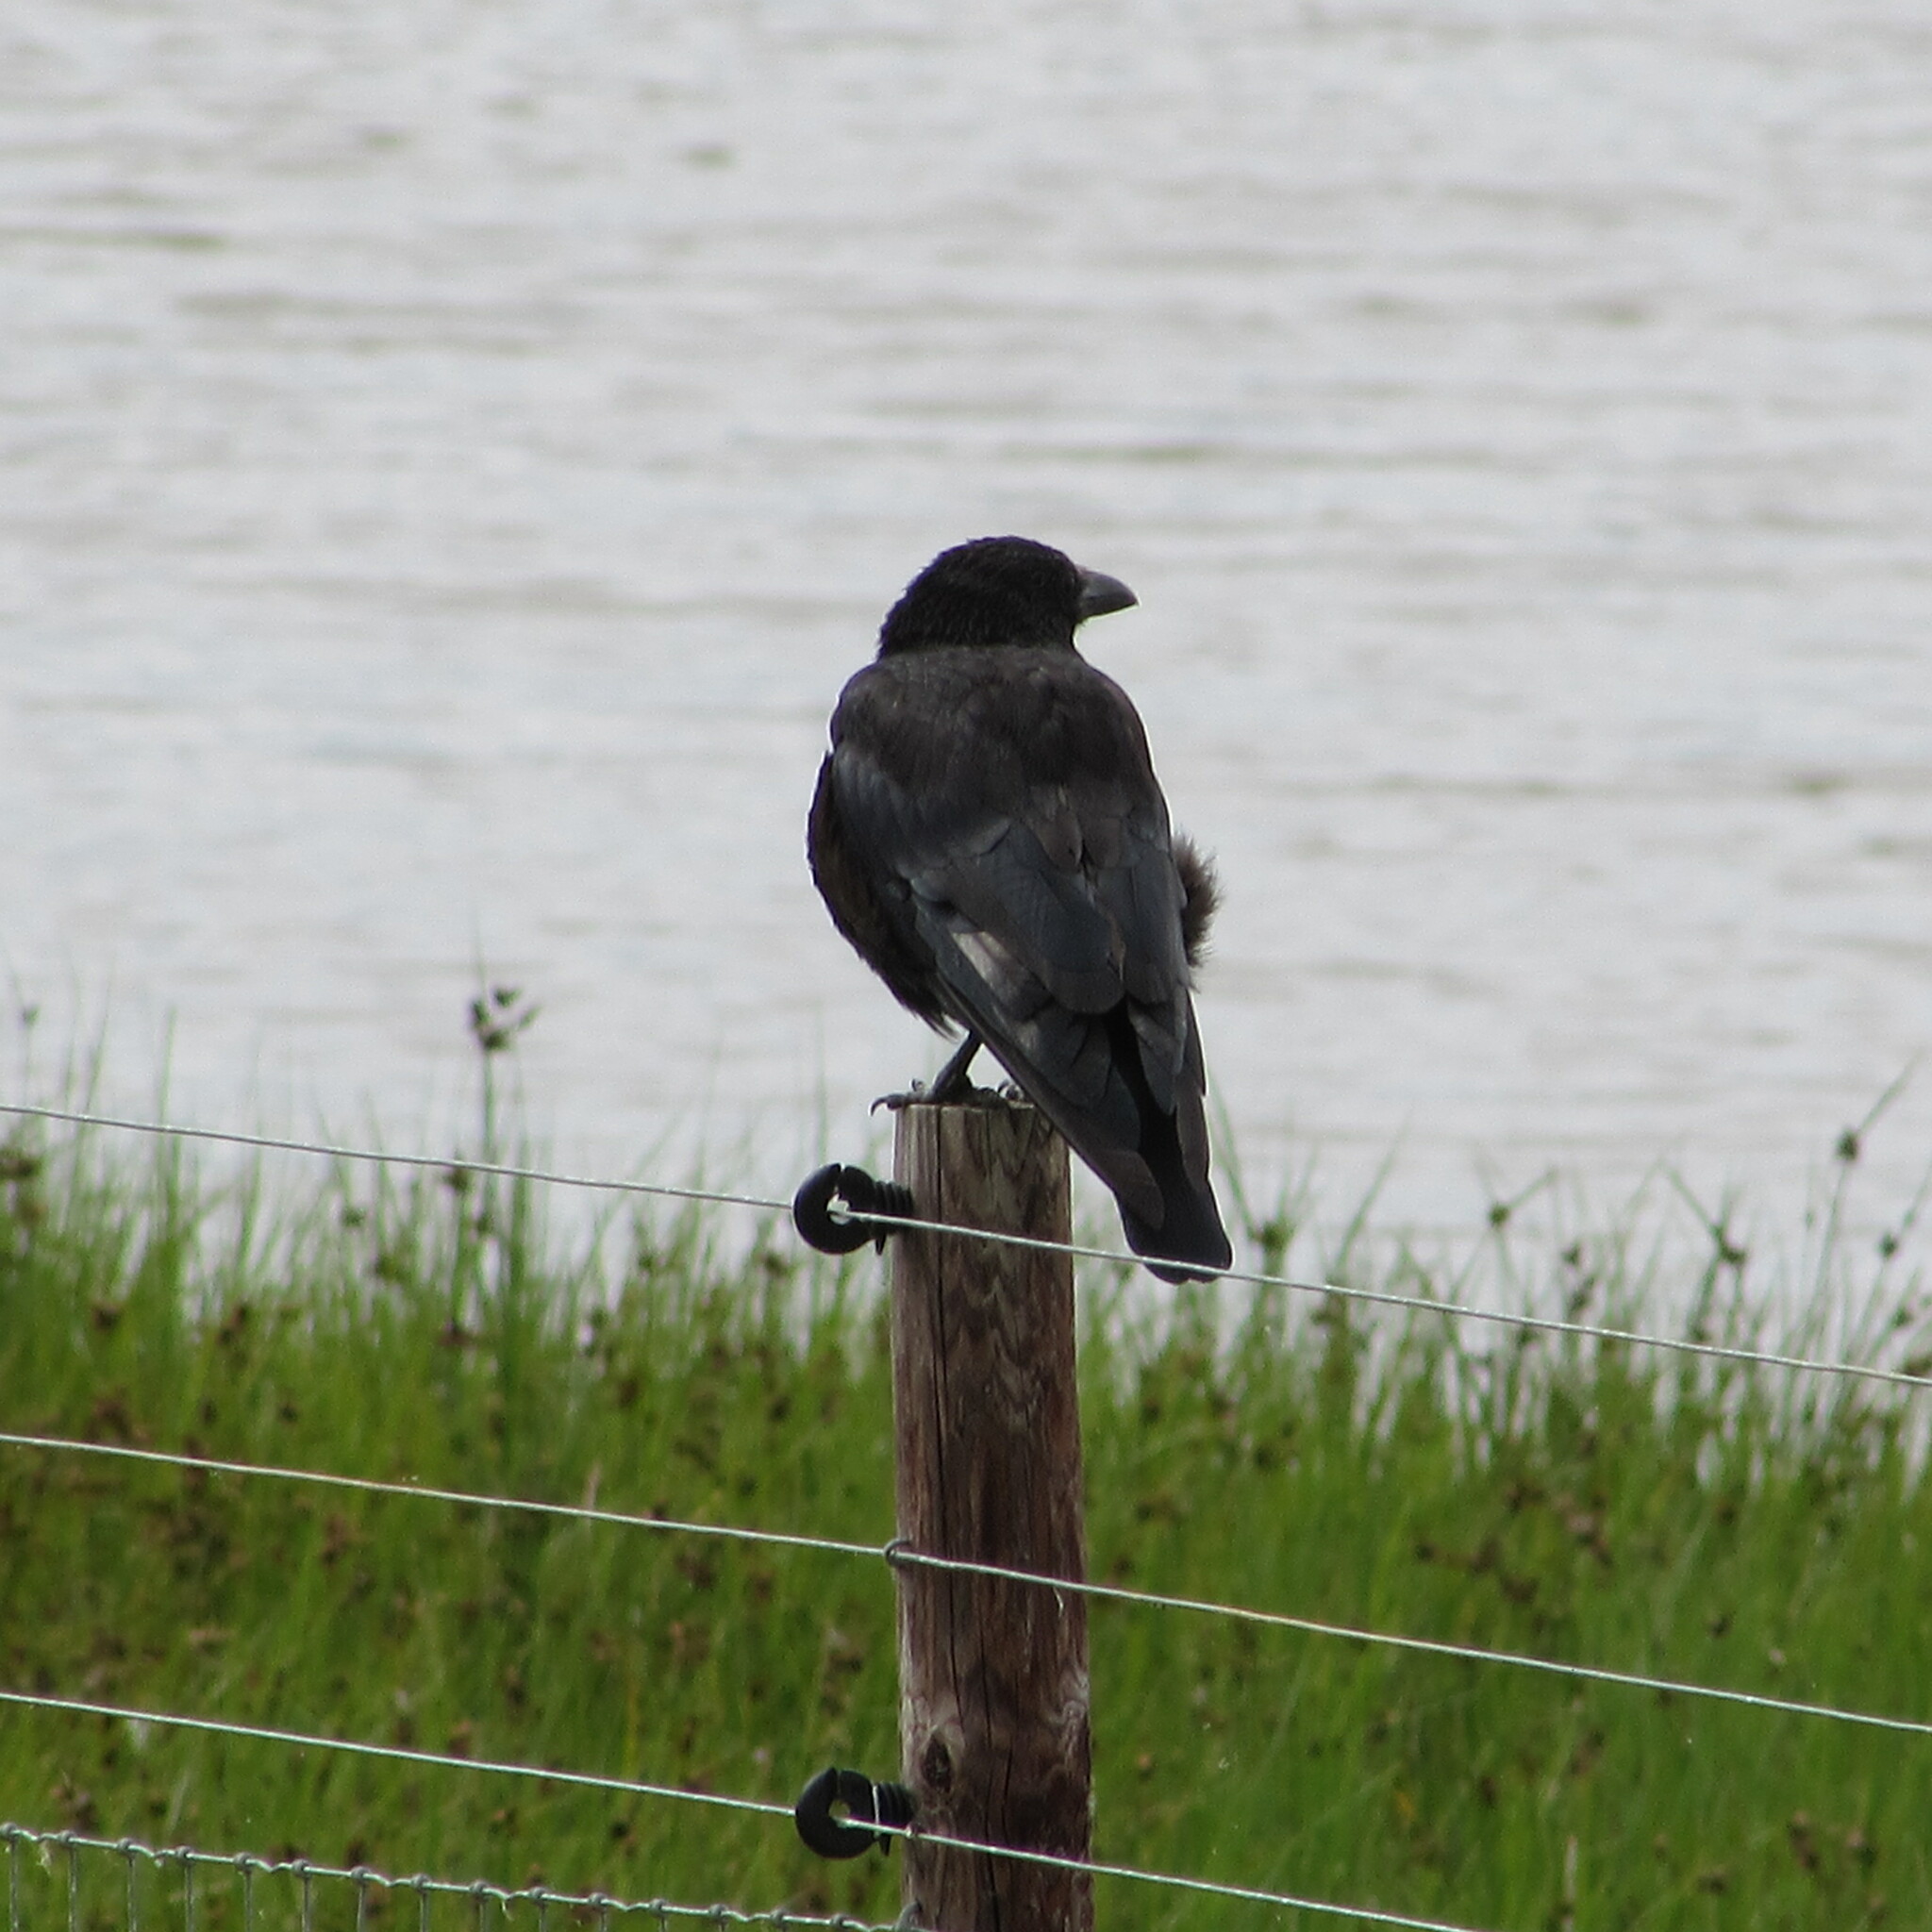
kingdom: Animalia
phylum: Chordata
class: Aves
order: Passeriformes
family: Corvidae
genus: Corvus
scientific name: Corvus corone
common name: Carrion crow
